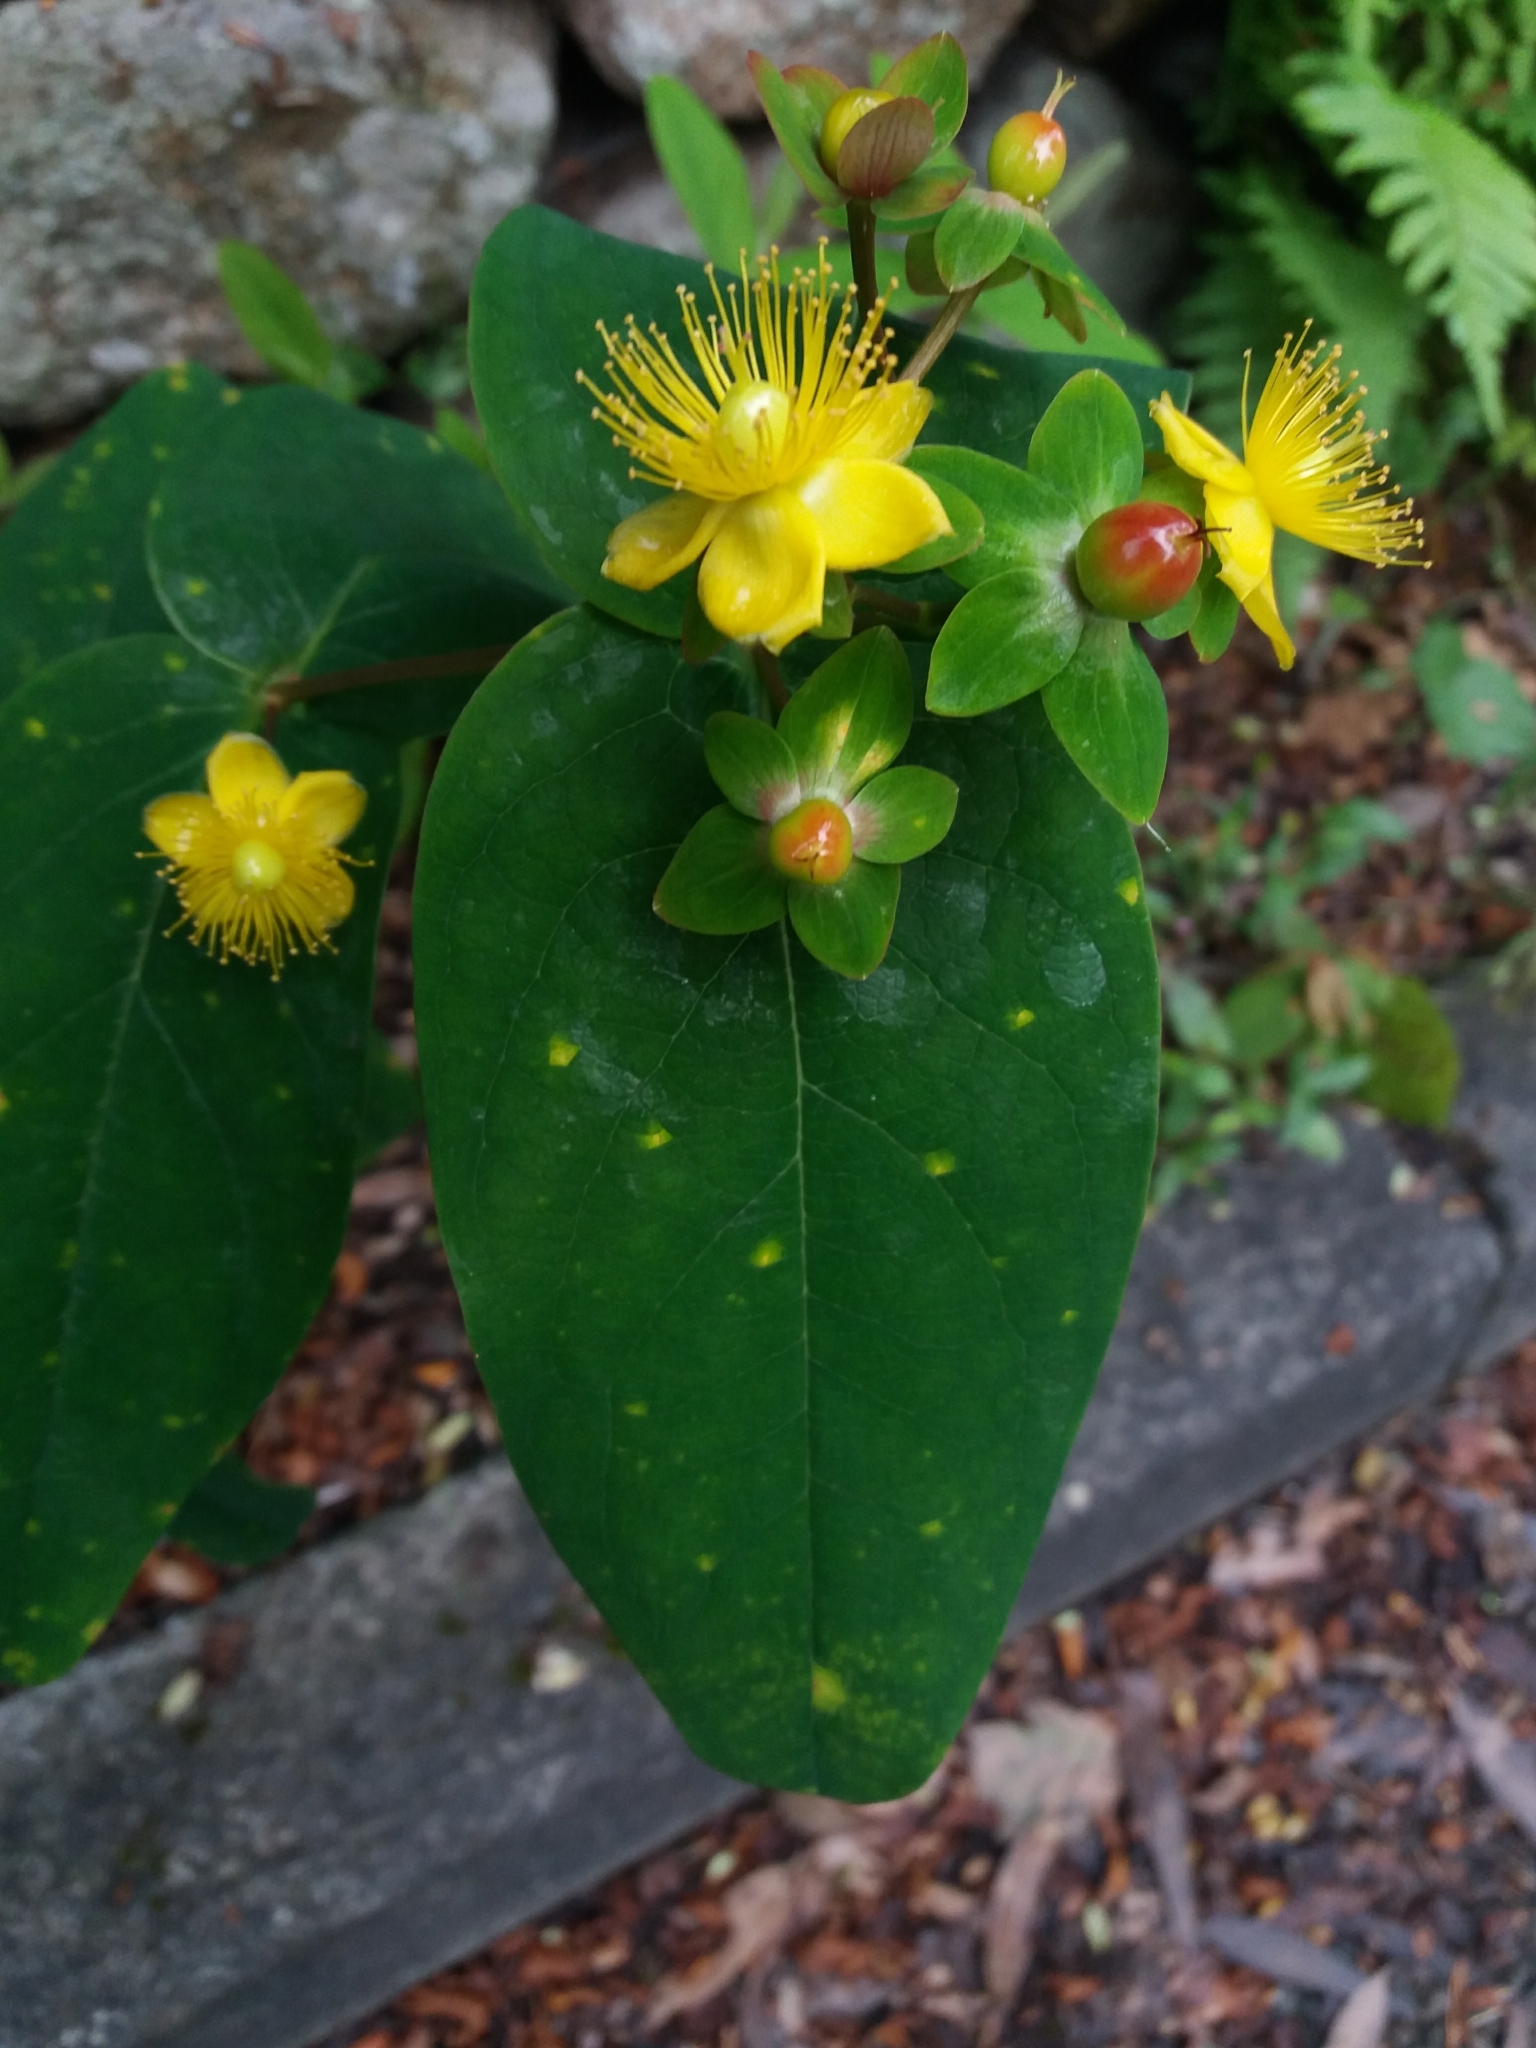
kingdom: Plantae
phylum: Tracheophyta
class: Magnoliopsida
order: Malpighiales
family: Hypericaceae
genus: Hypericum
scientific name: Hypericum androsaemum
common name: Sweet-amber
